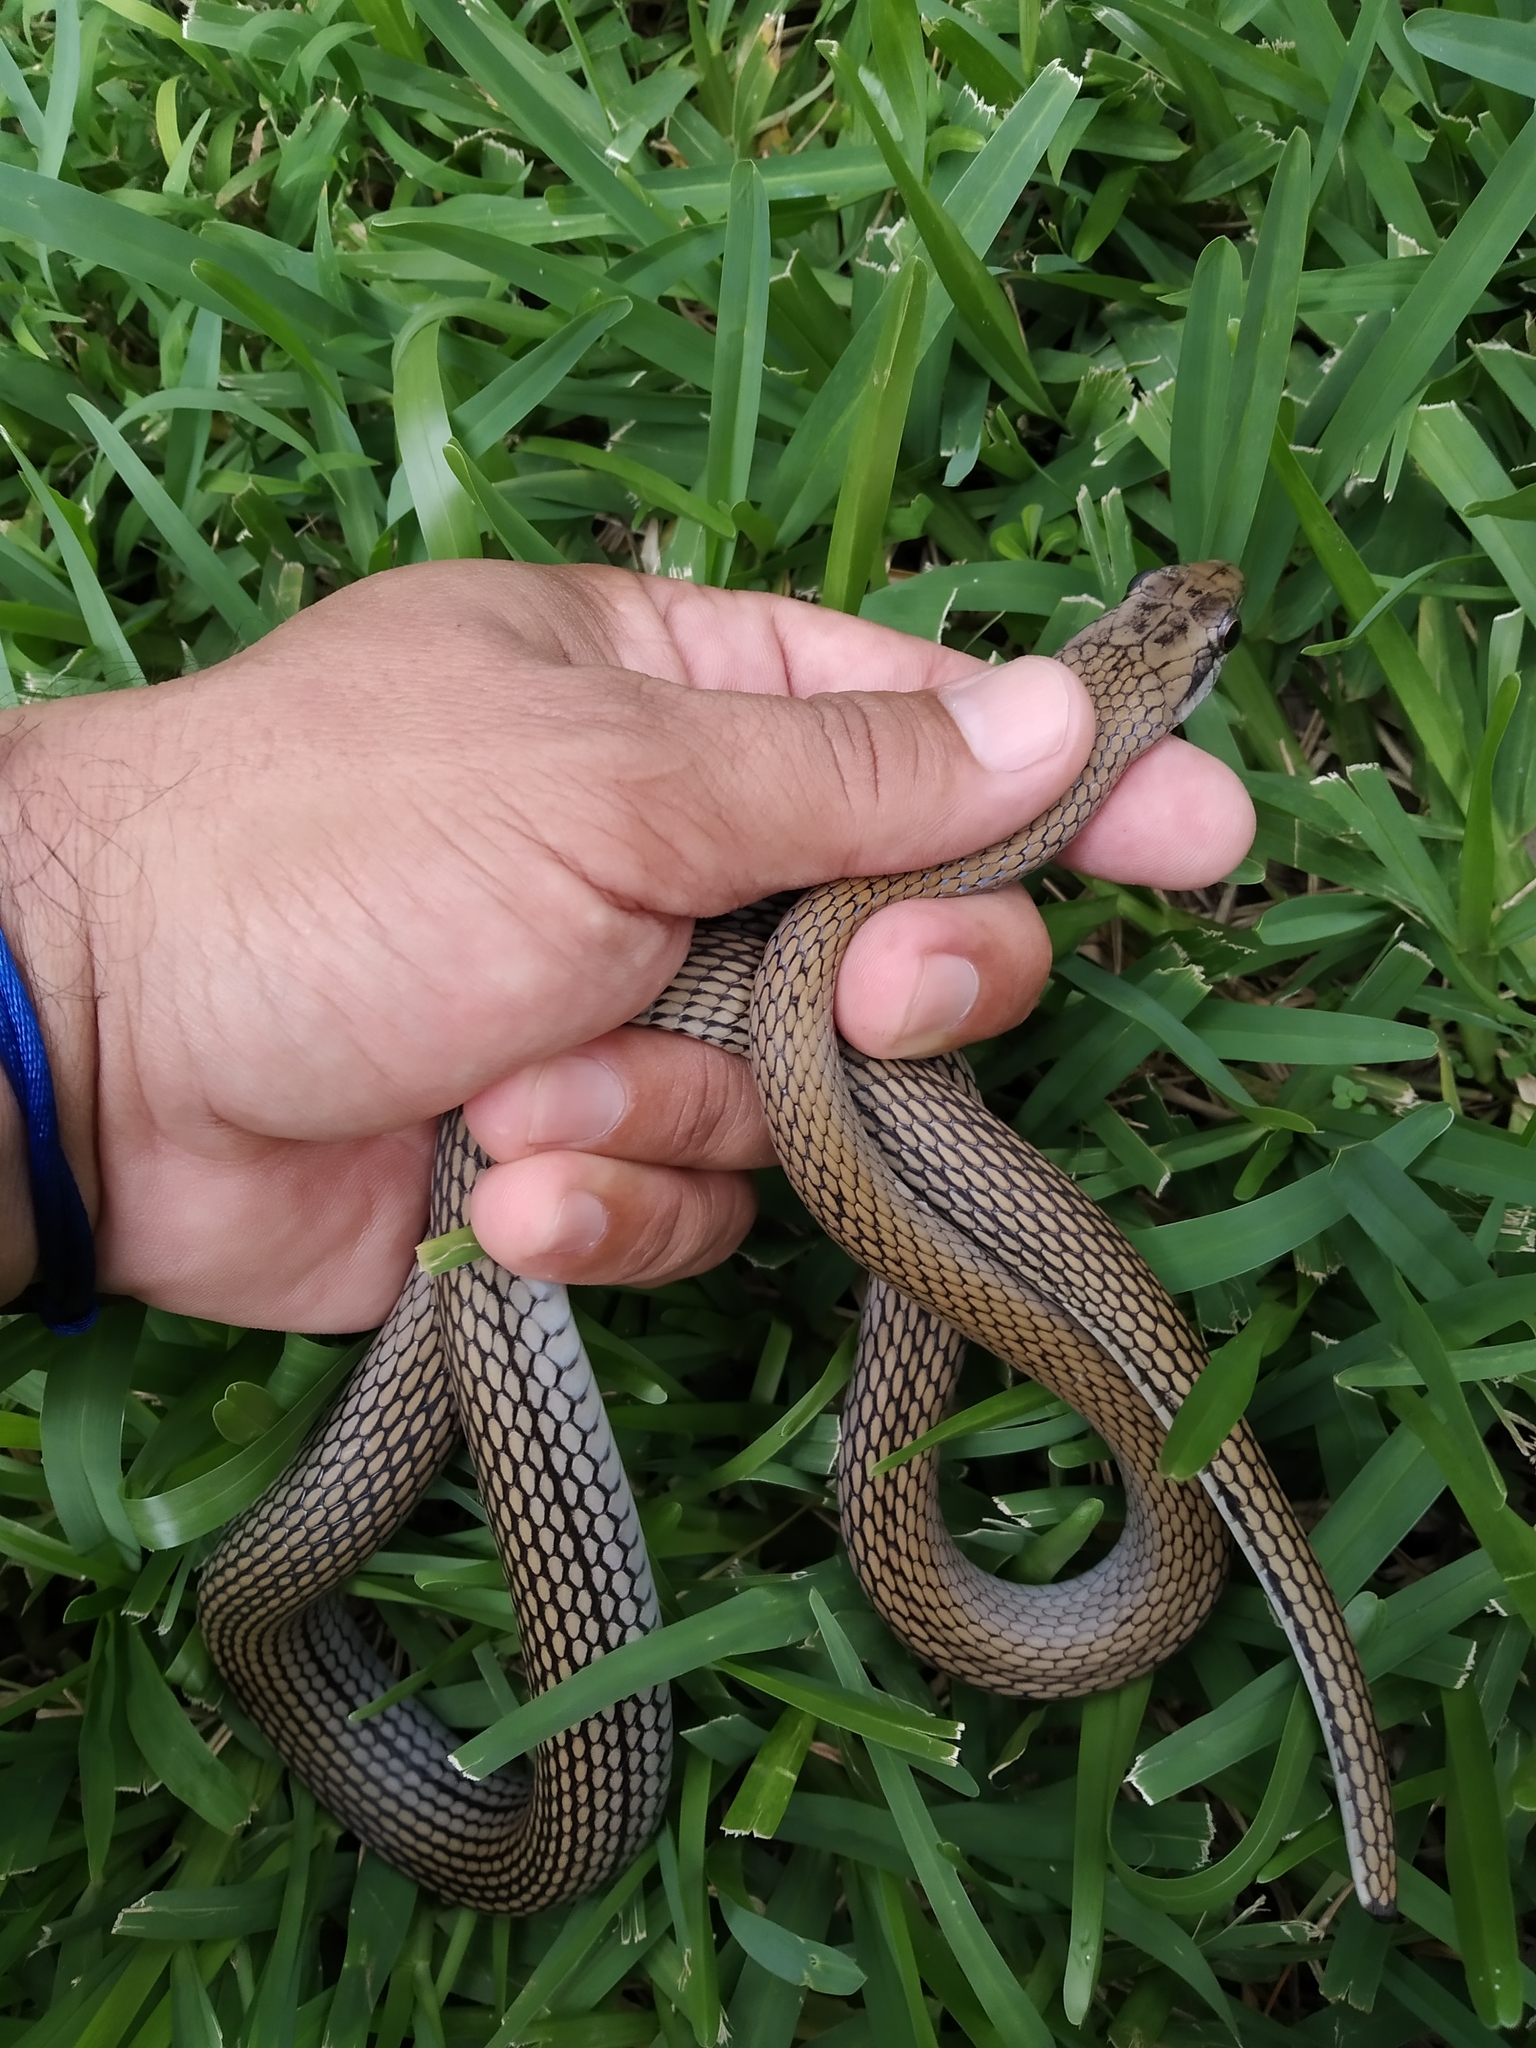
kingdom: Animalia
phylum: Chordata
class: Squamata
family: Colubridae
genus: Mastigodryas
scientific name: Mastigodryas melanolomus
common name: Salmon-bellied racer
